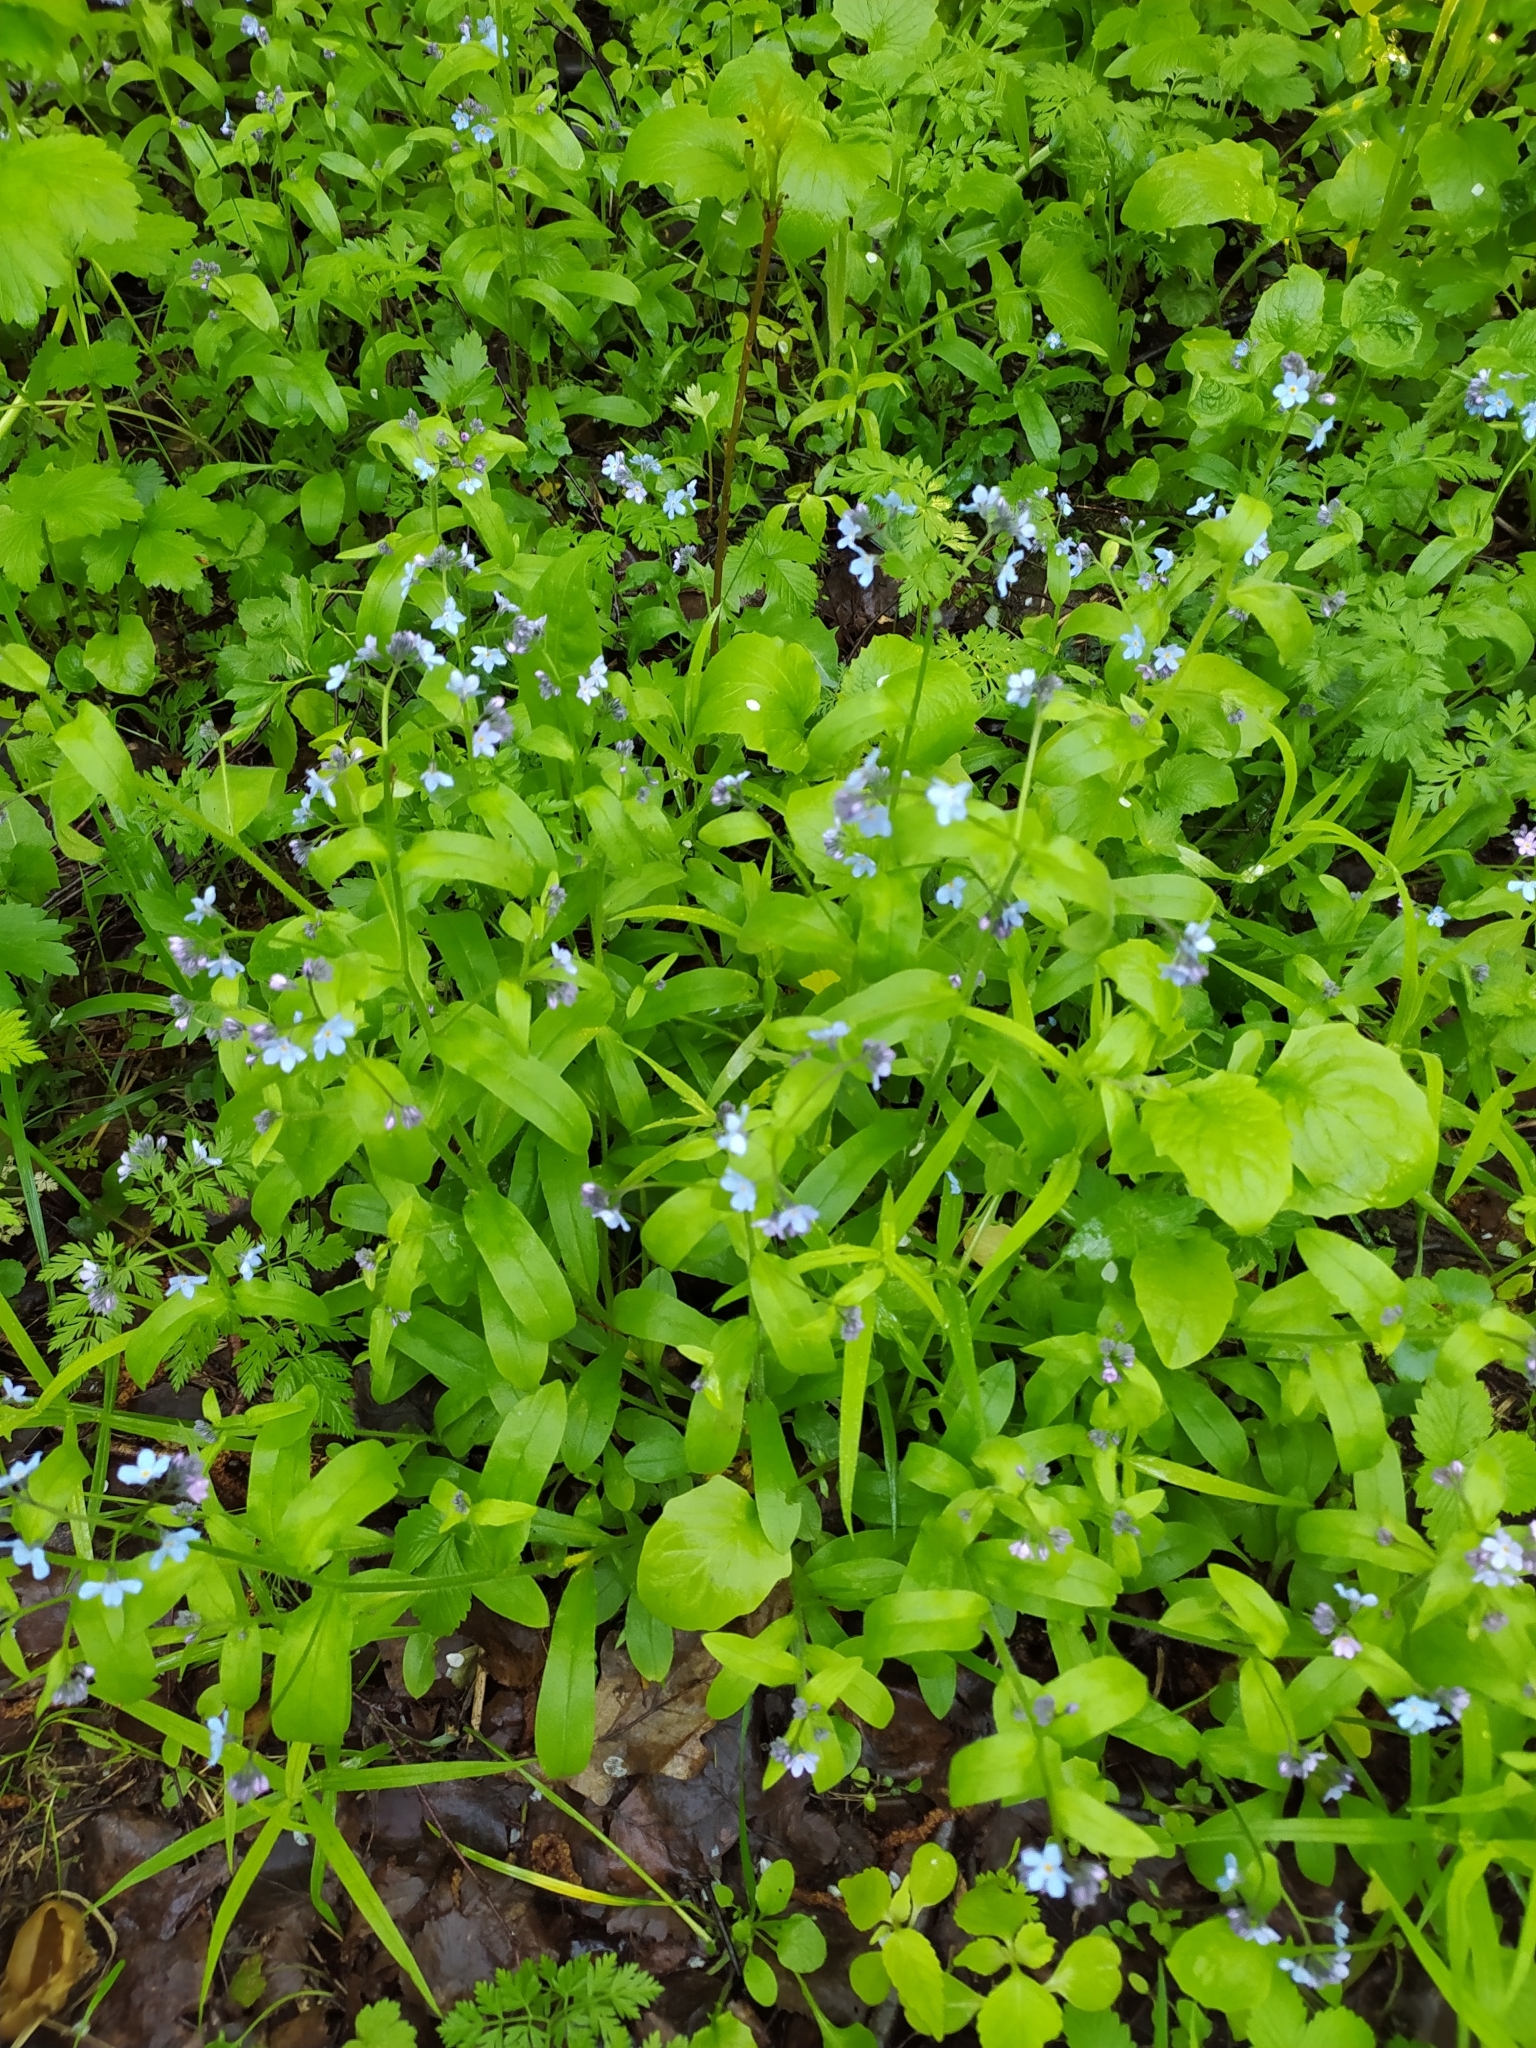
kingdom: Plantae
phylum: Tracheophyta
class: Magnoliopsida
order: Boraginales
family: Boraginaceae
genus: Myosotis
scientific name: Myosotis sylvatica
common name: Wood forget-me-not
